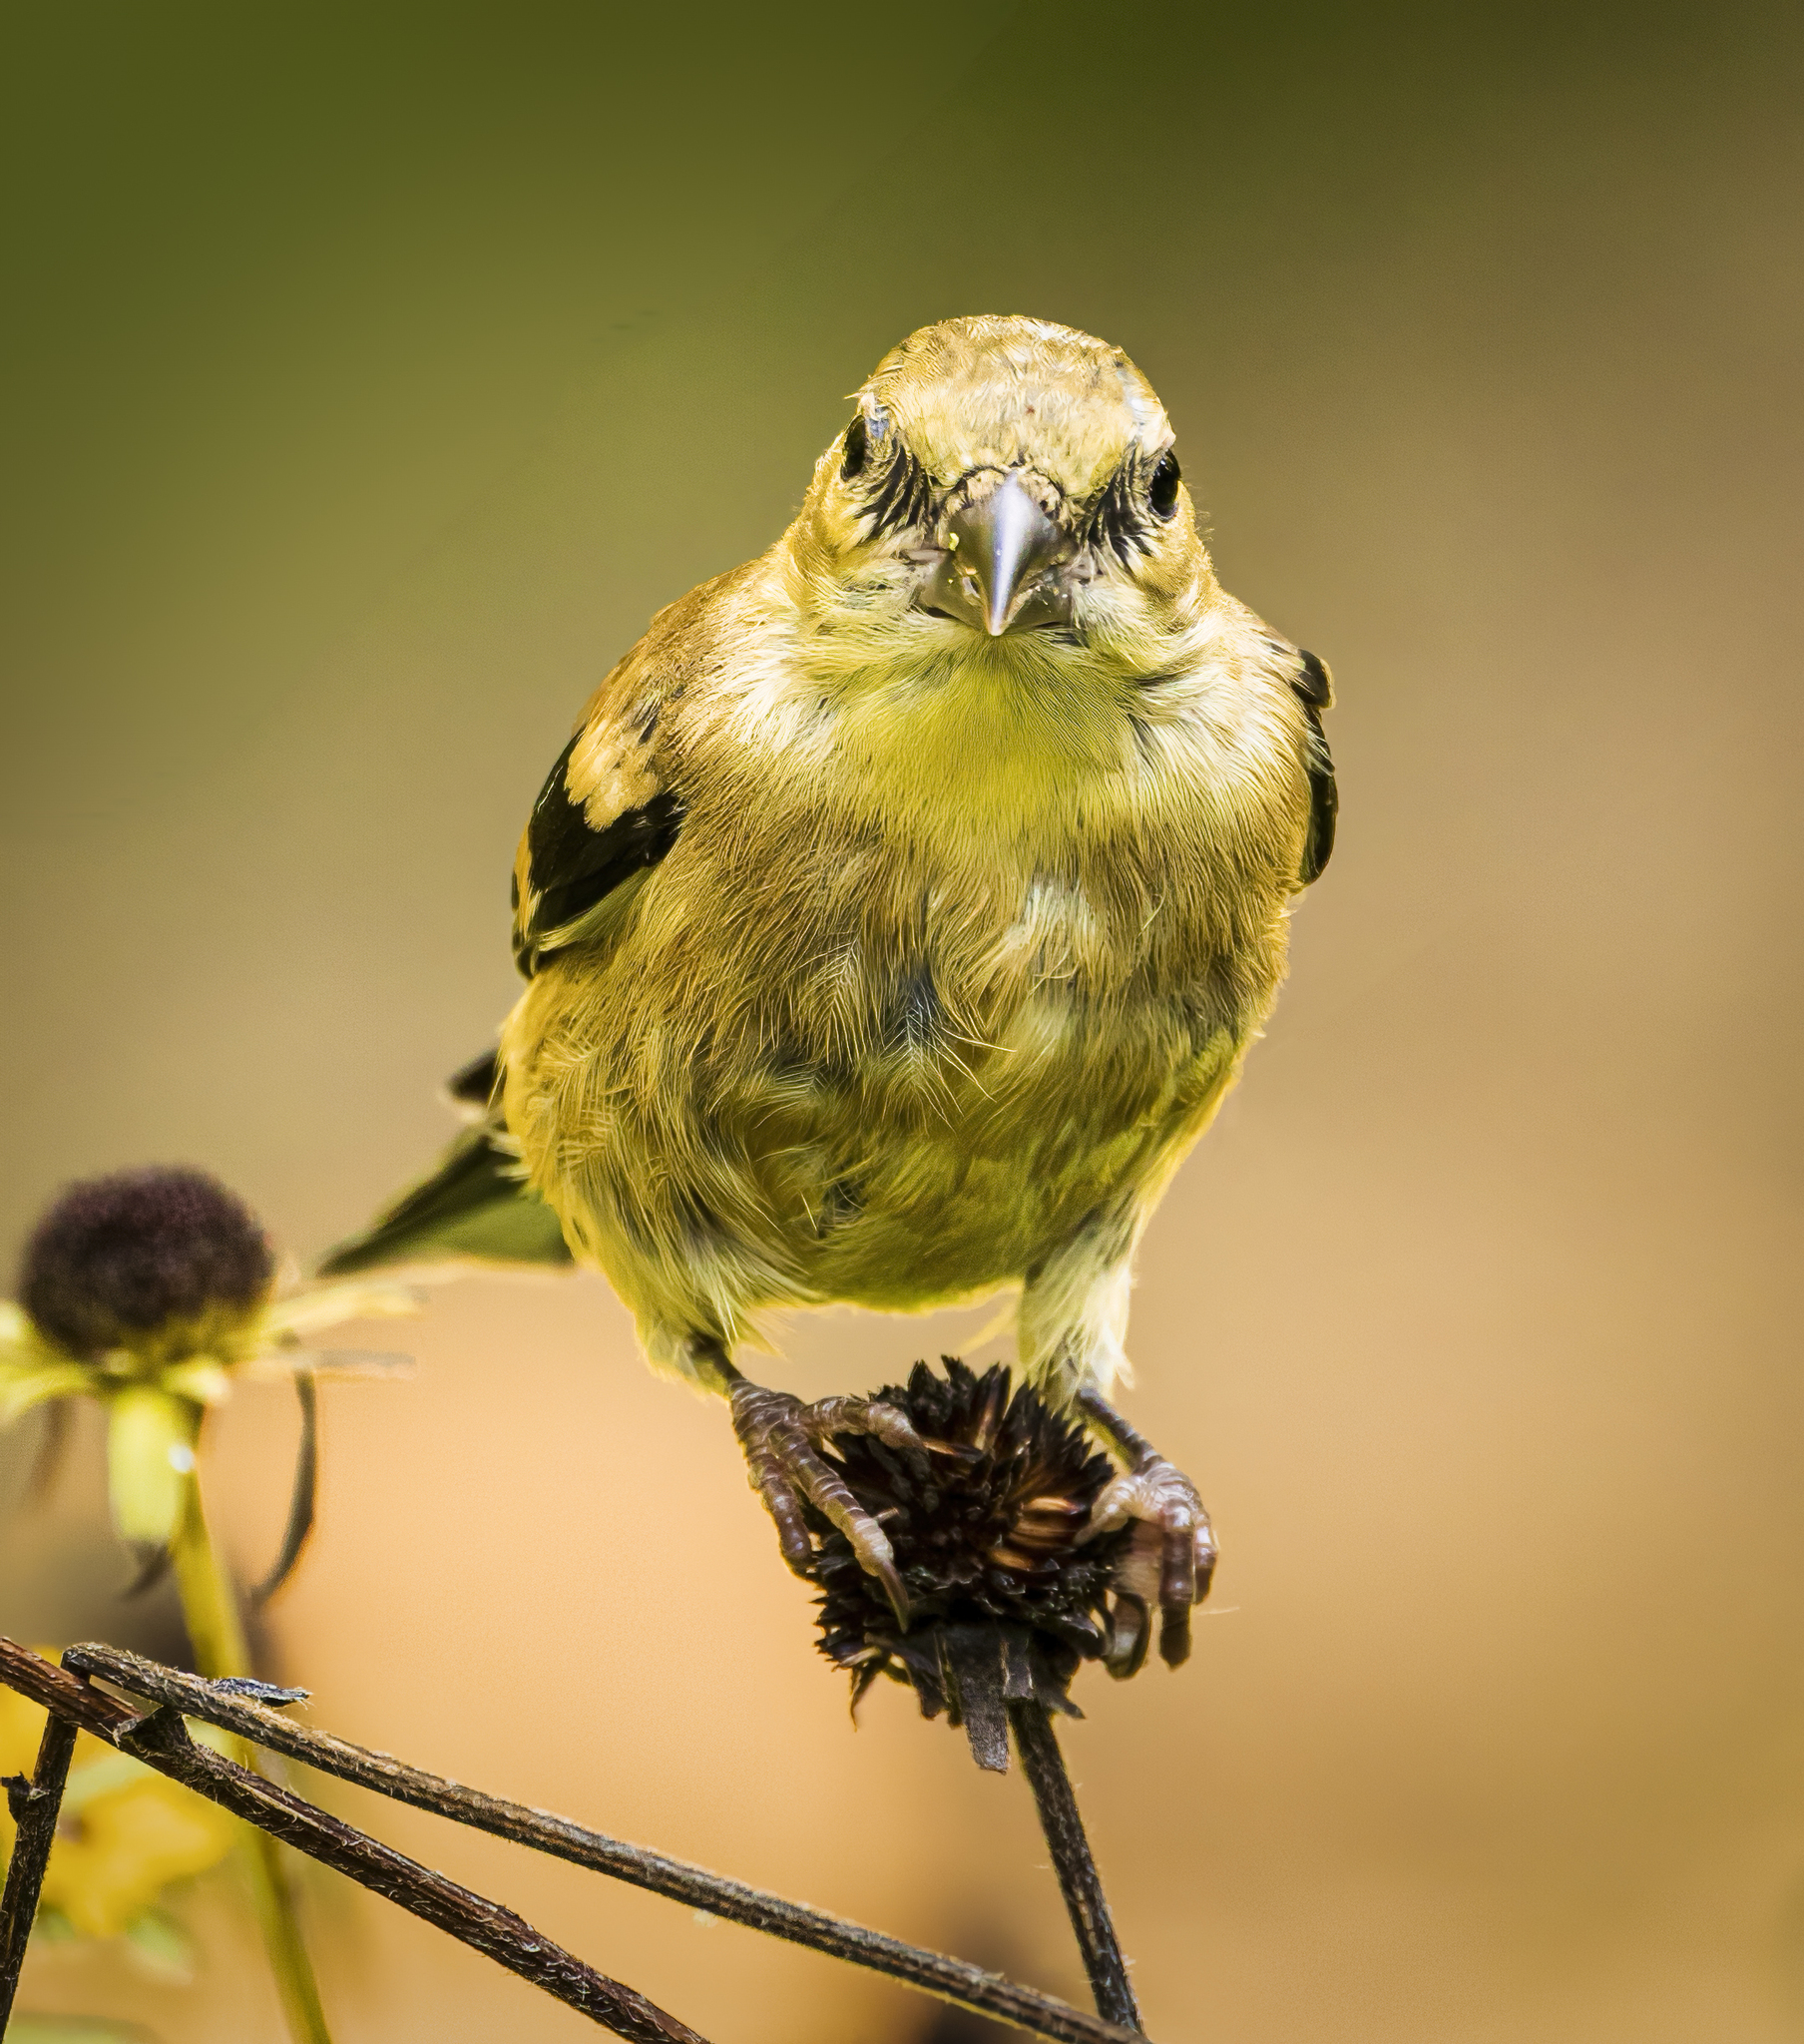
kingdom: Animalia
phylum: Chordata
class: Aves
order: Passeriformes
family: Fringillidae
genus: Spinus
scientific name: Spinus tristis
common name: American goldfinch
